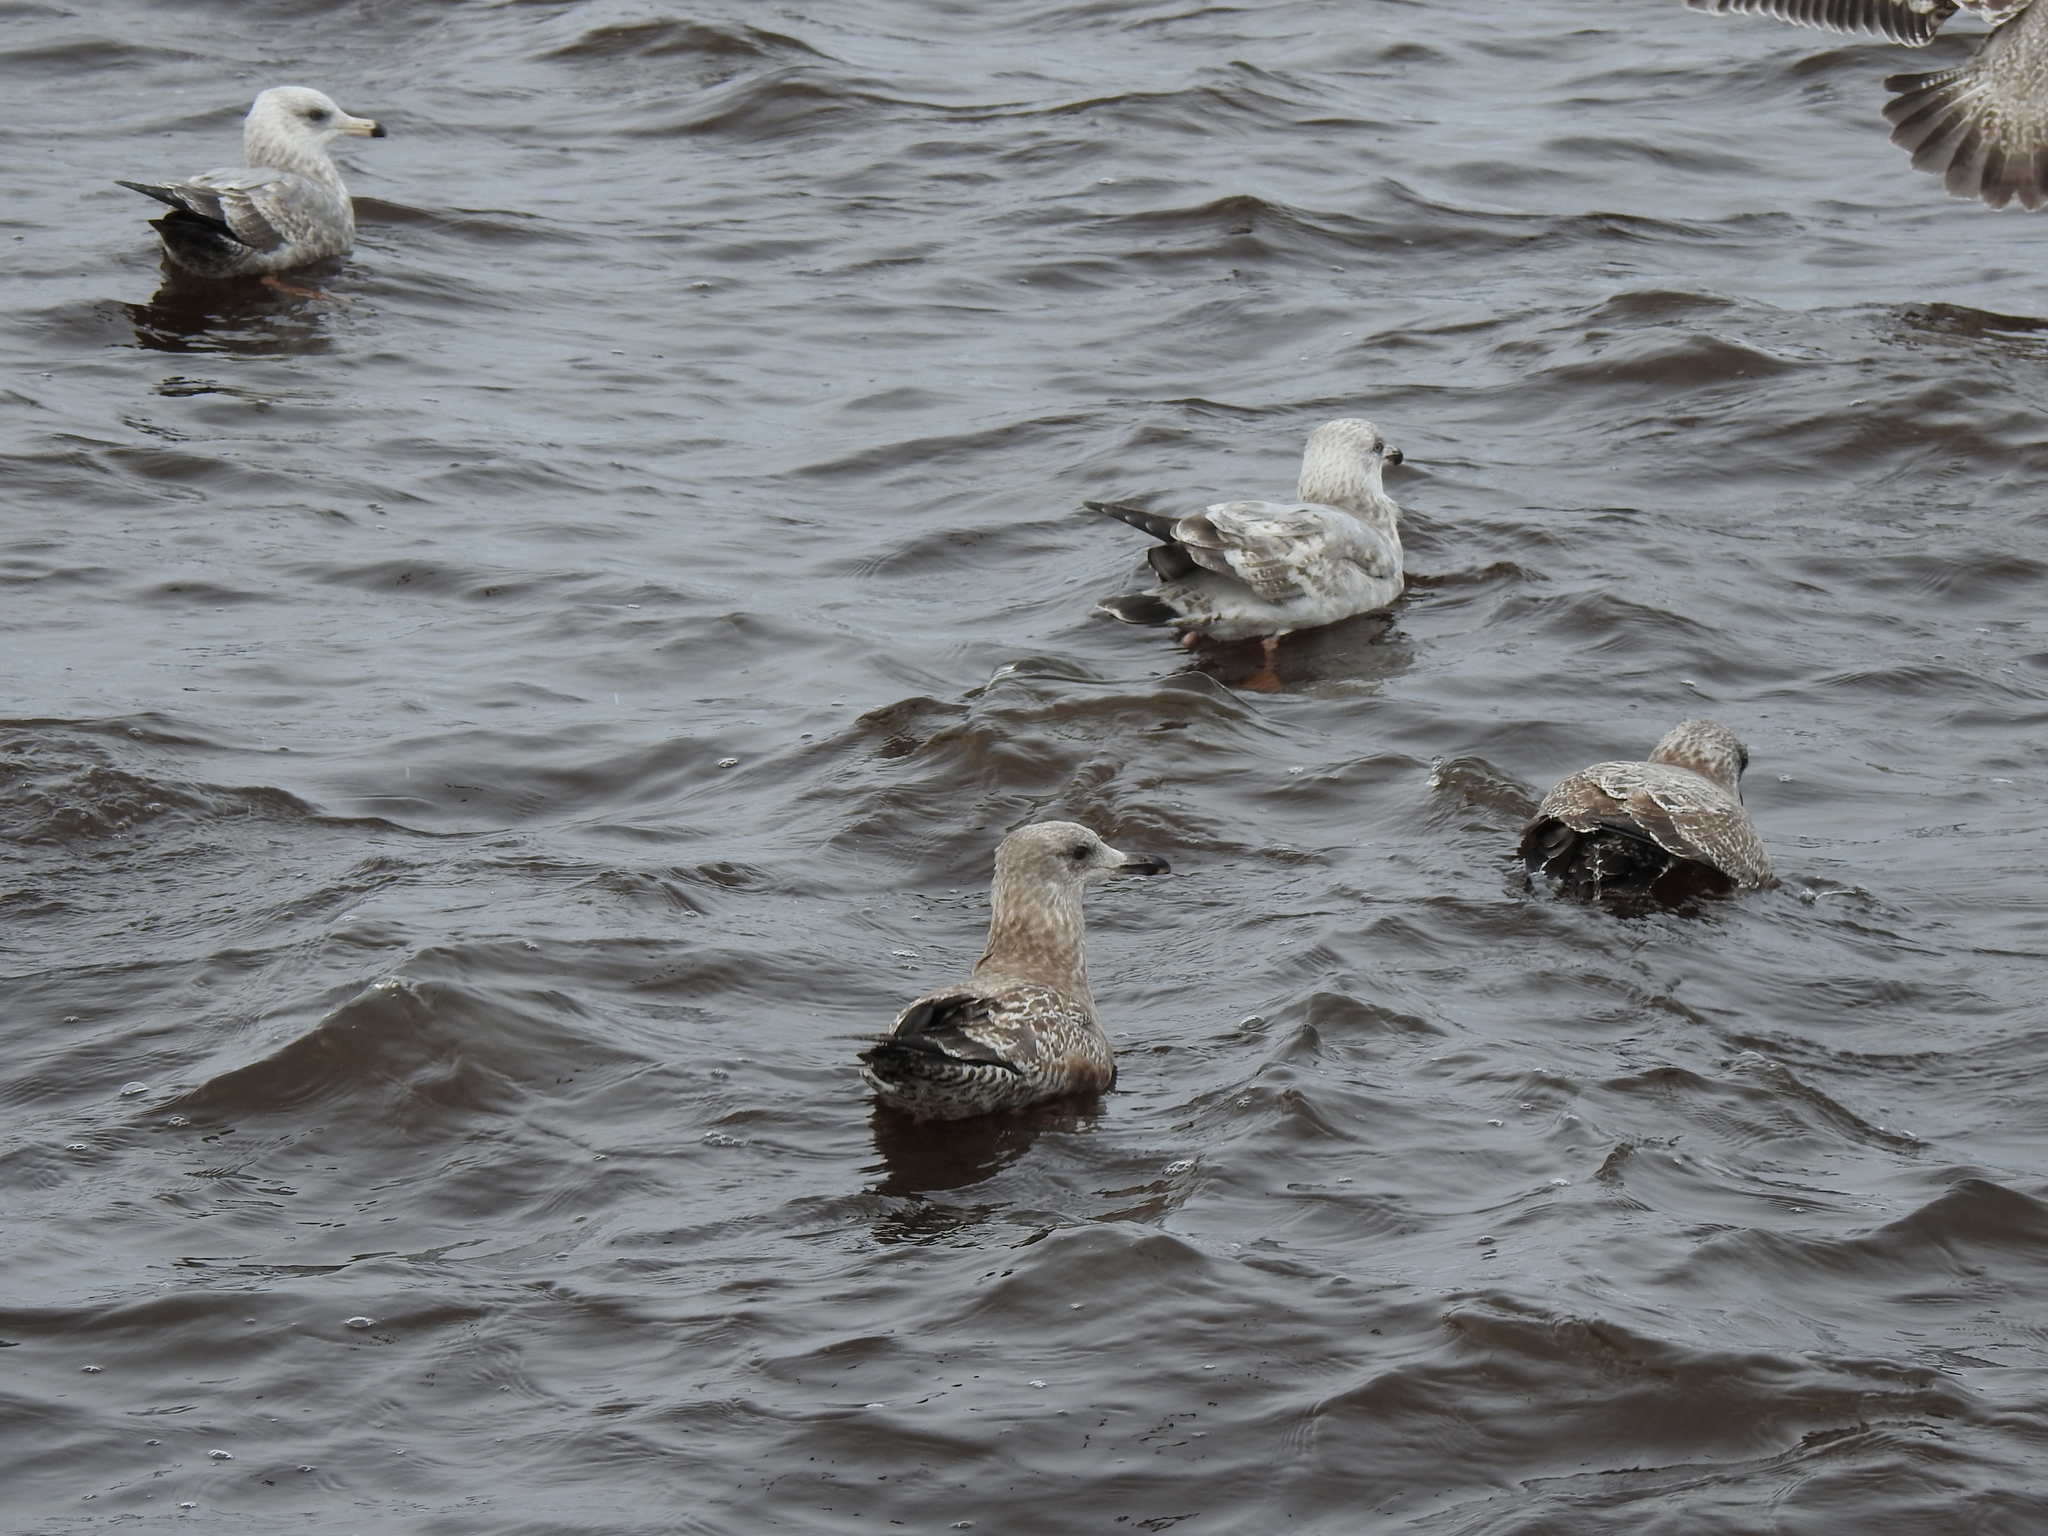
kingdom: Animalia
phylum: Chordata
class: Aves
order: Charadriiformes
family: Laridae
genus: Larus
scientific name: Larus smithsonianus
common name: American herring gull
